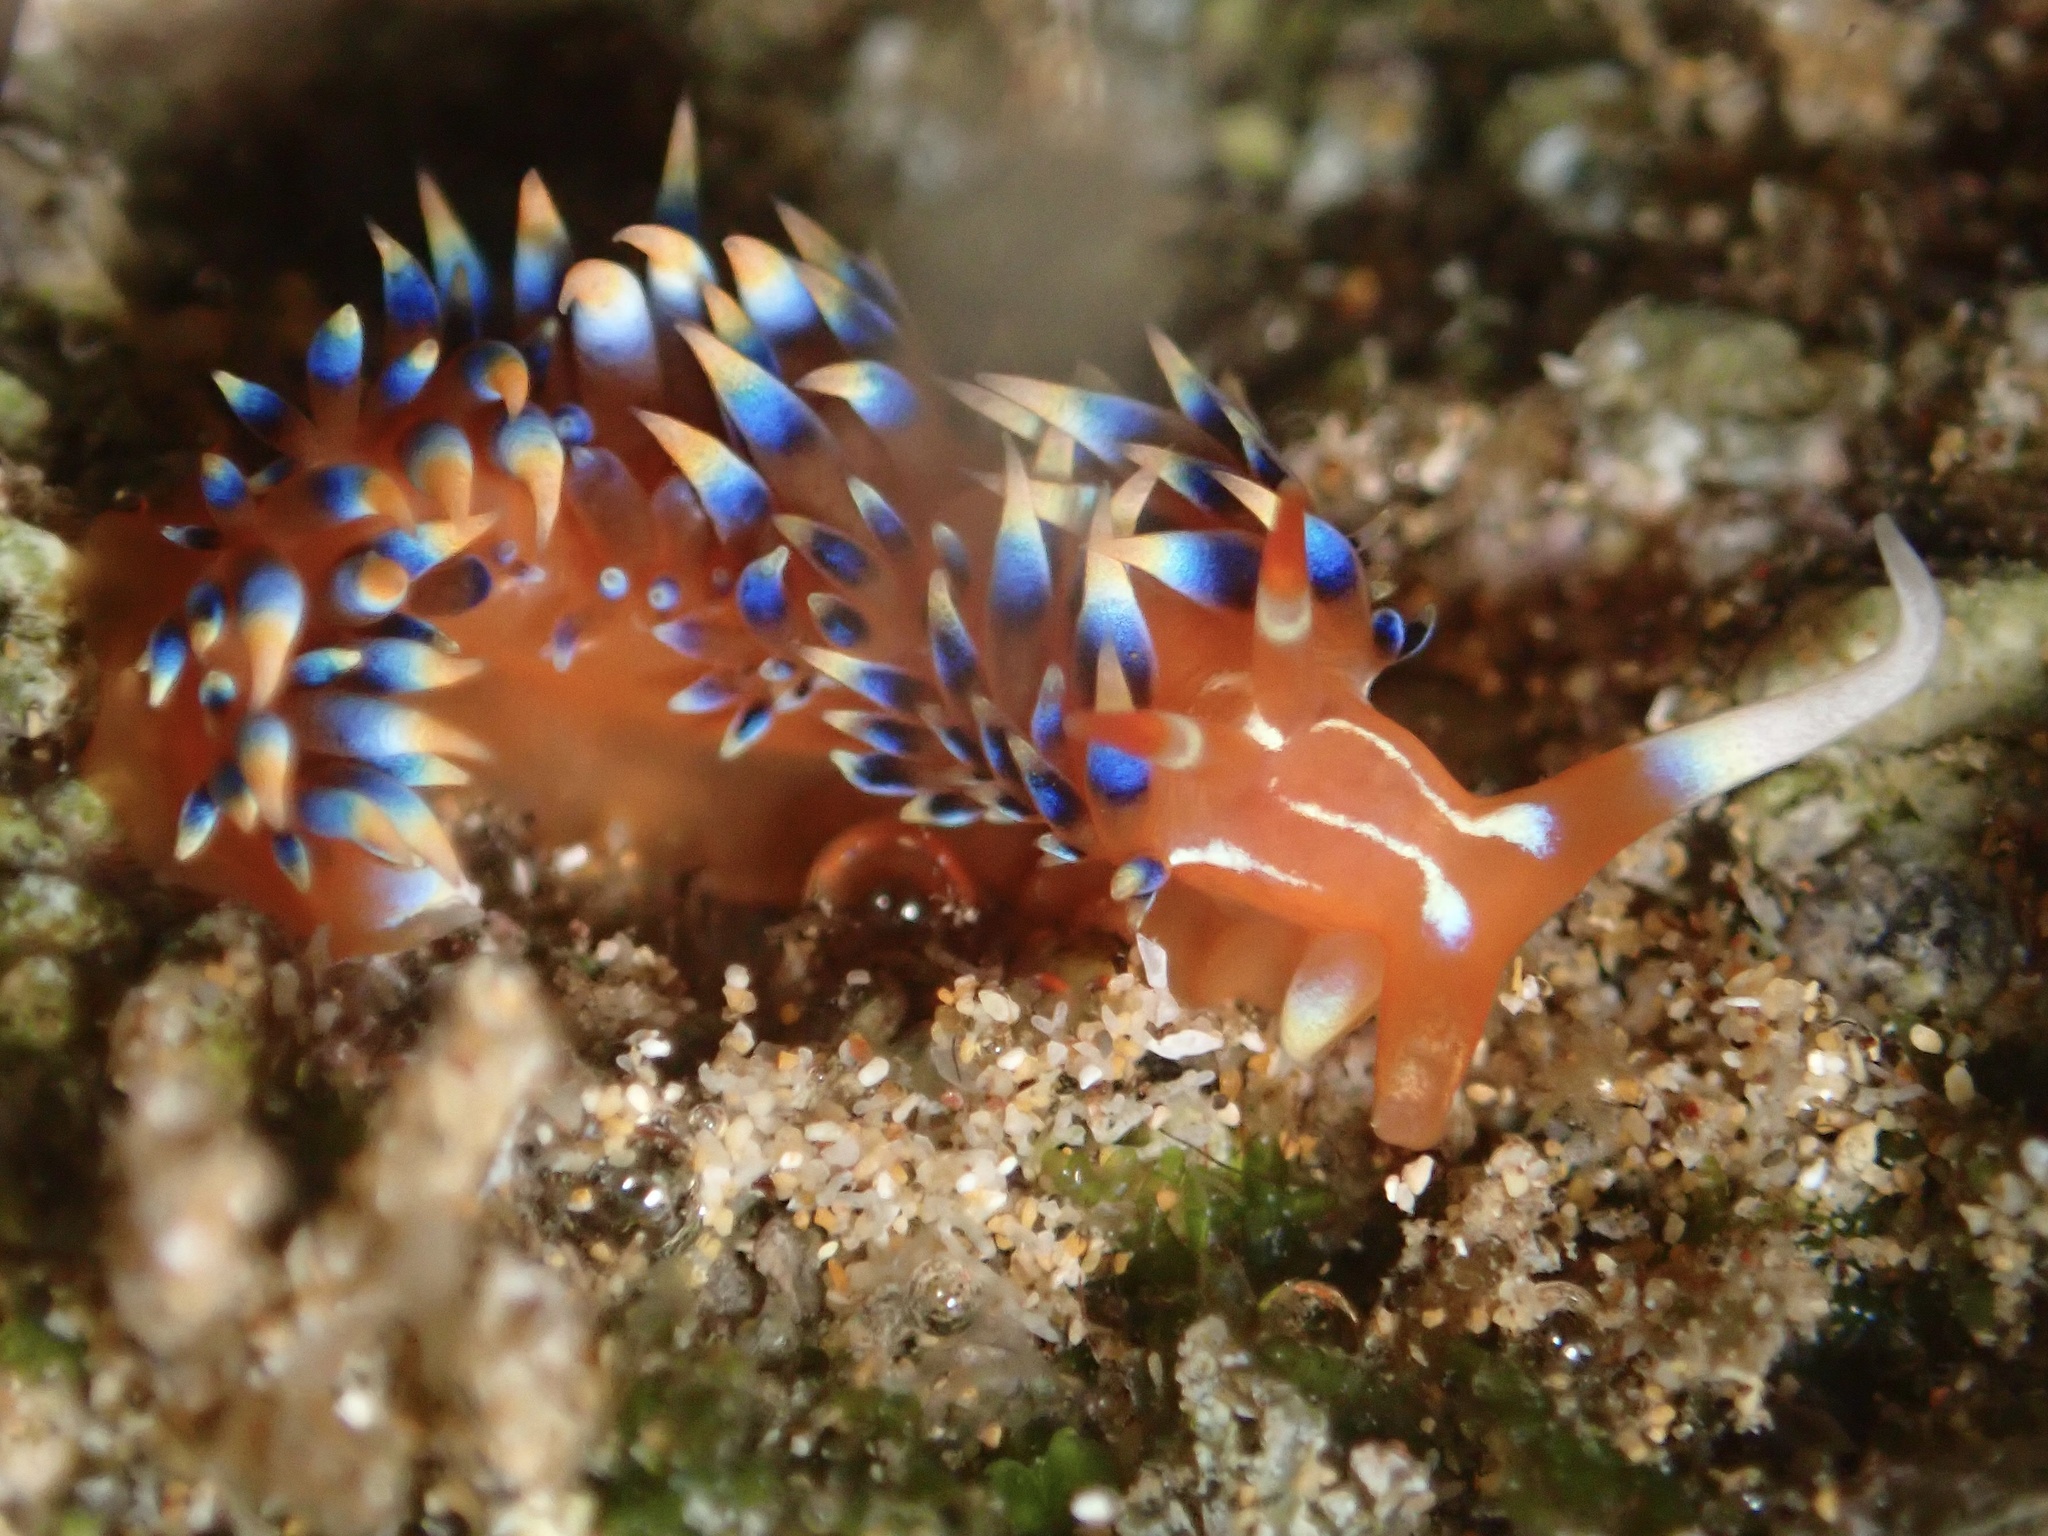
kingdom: Animalia
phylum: Mollusca
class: Gastropoda
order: Nudibranchia
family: Facelinidae
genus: Caloria
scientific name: Caloria indica
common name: Sea slug
